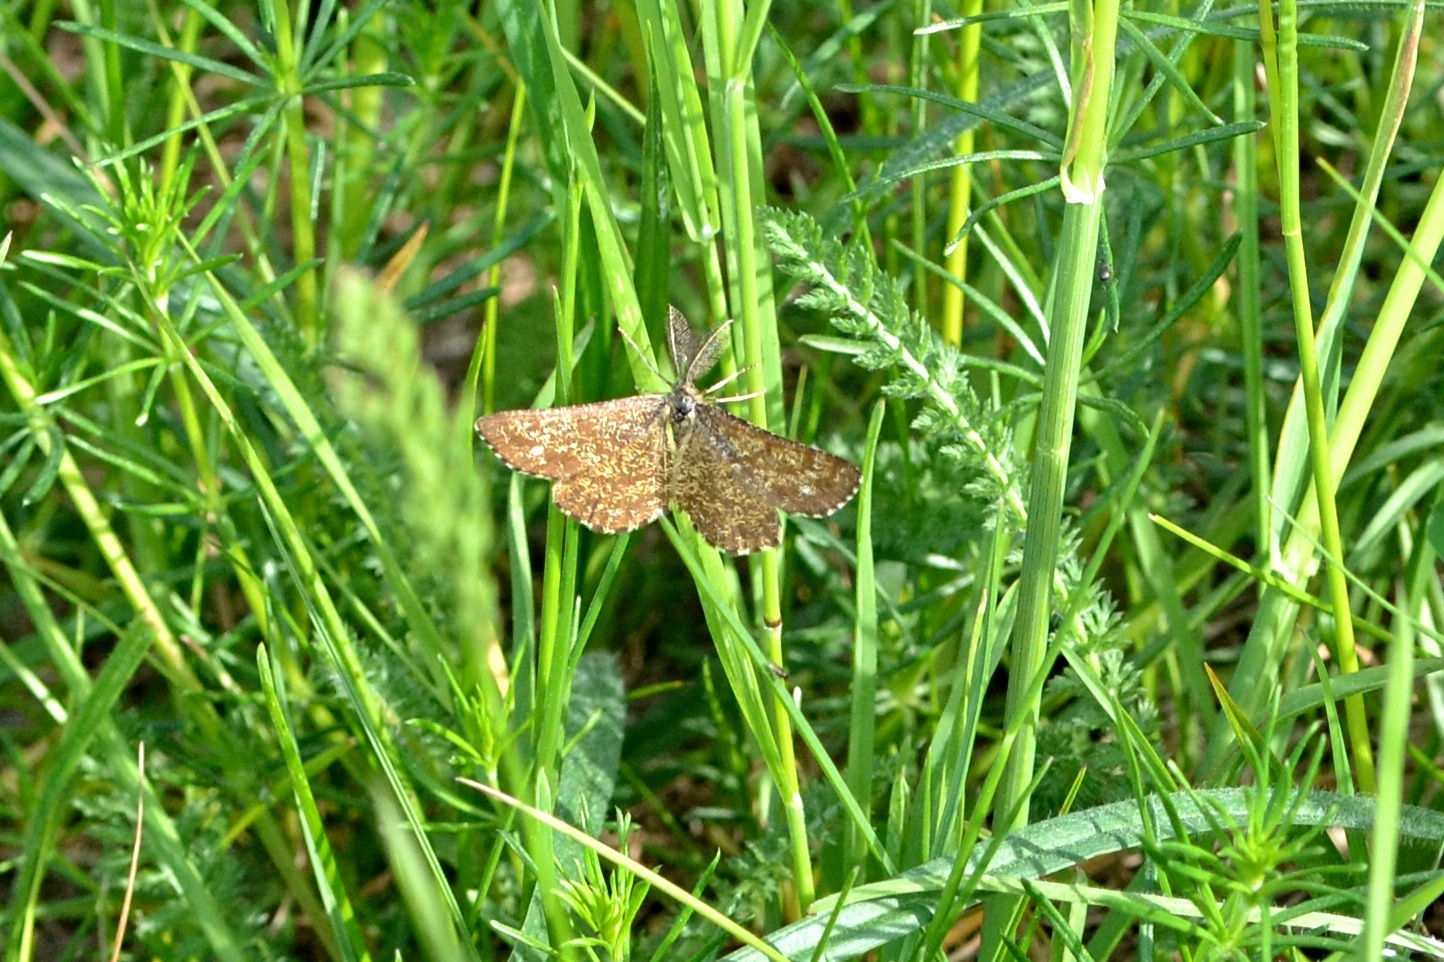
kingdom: Animalia
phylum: Arthropoda
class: Insecta
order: Lepidoptera
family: Geometridae
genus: Ematurga
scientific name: Ematurga atomaria
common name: Common heath
